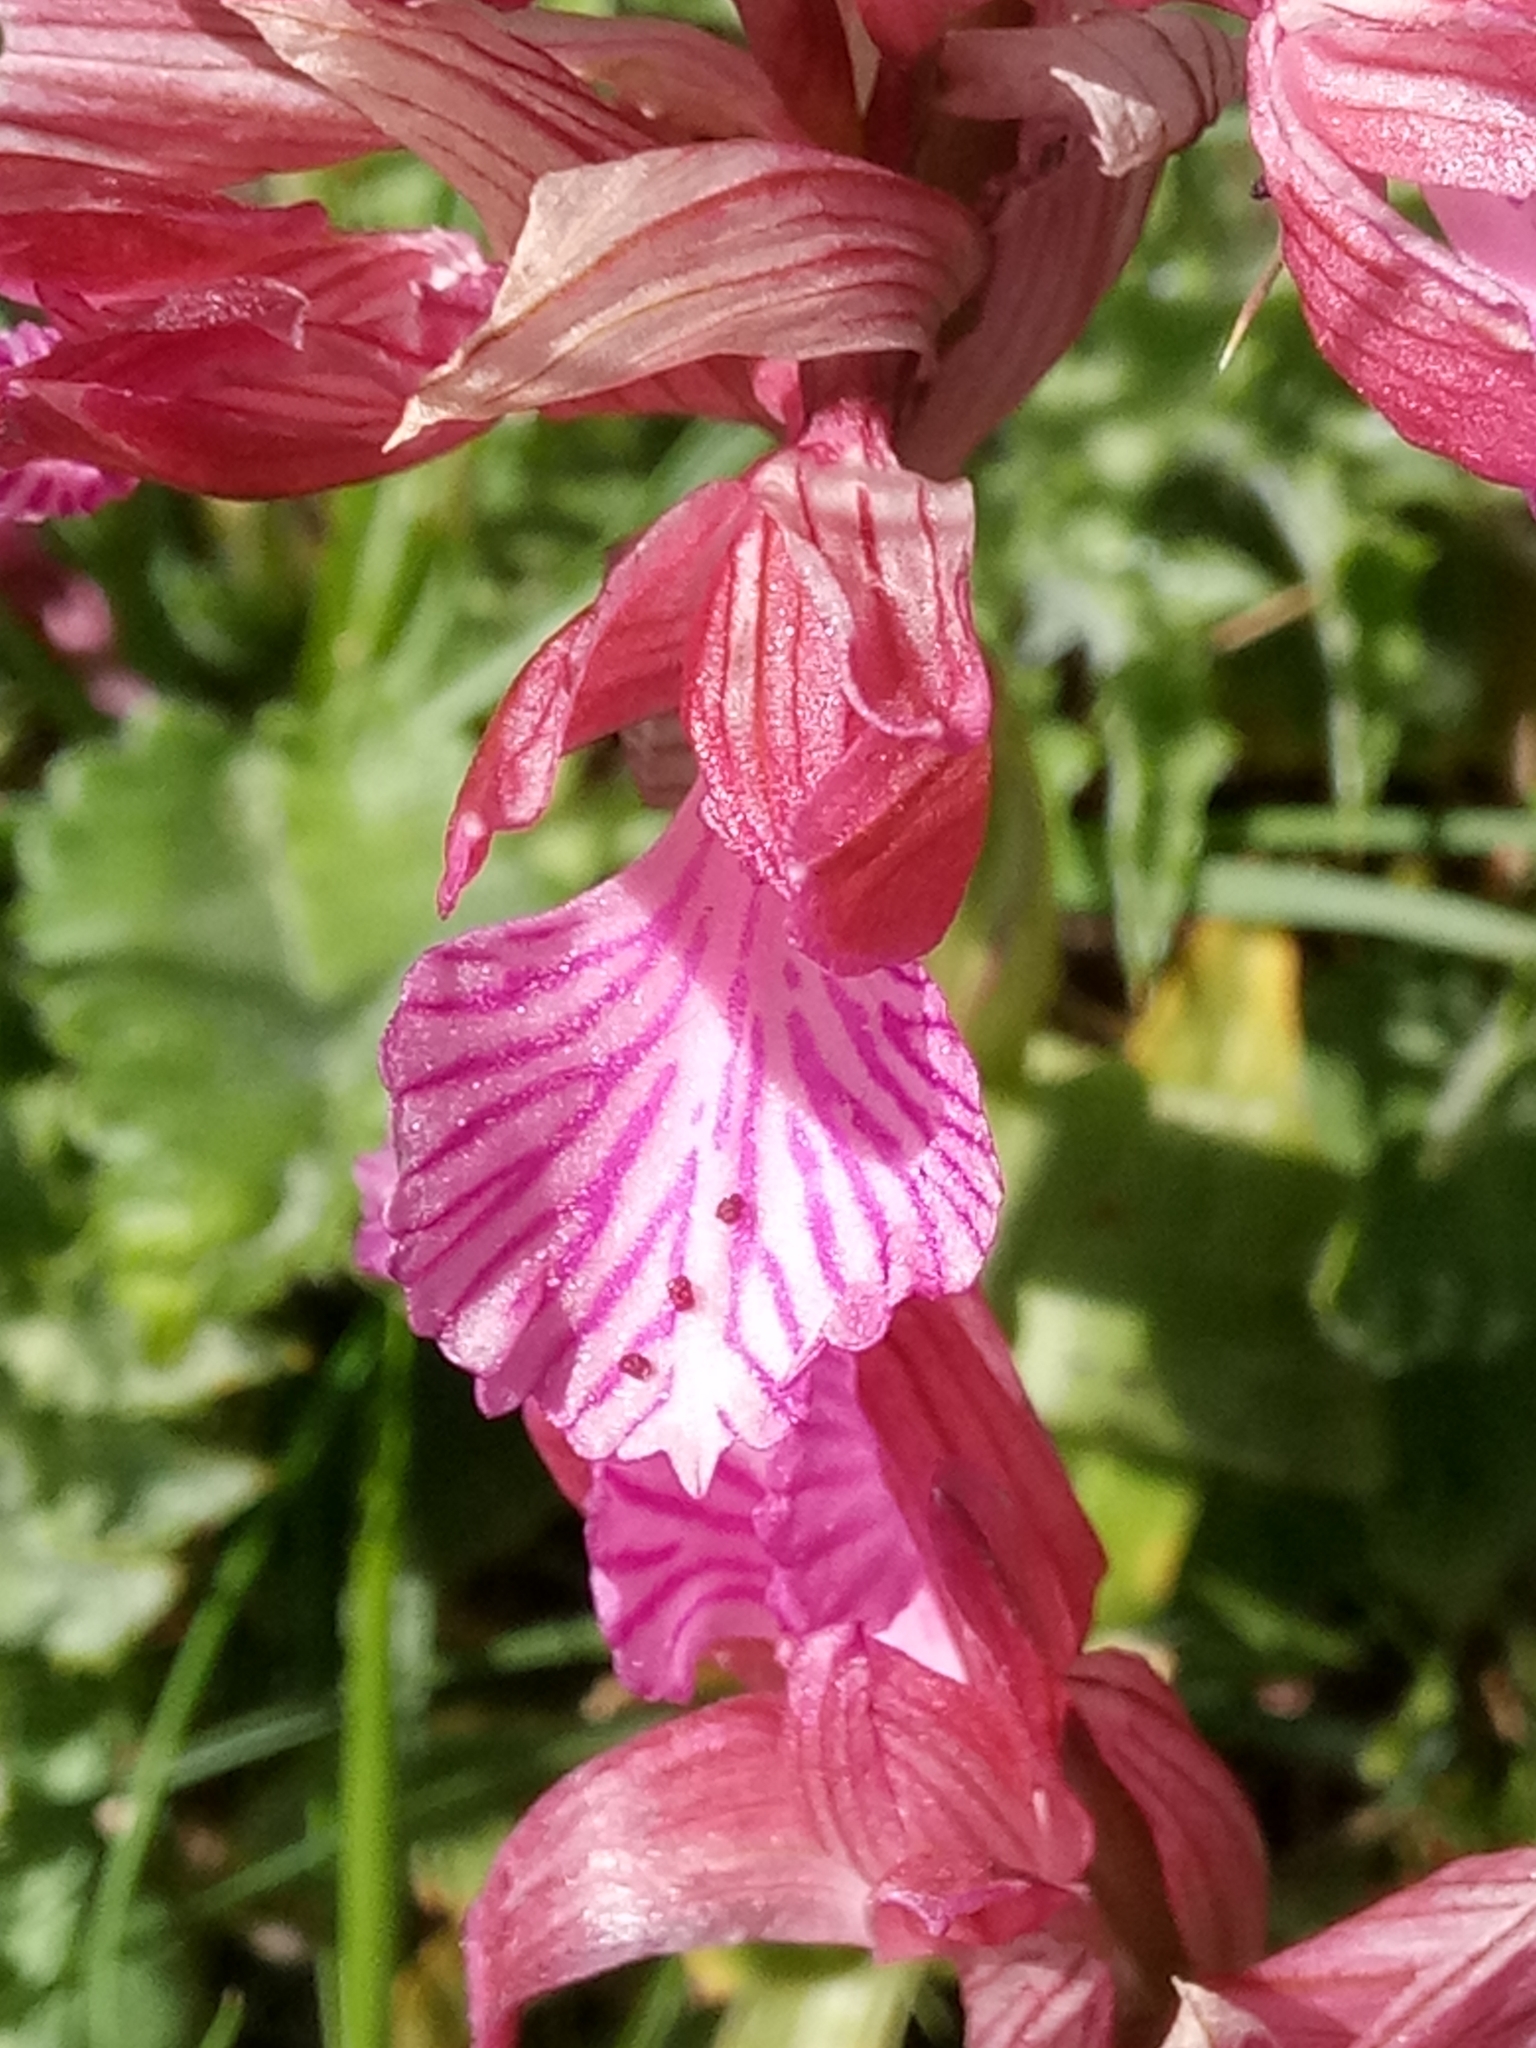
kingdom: Plantae
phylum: Tracheophyta
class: Liliopsida
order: Asparagales
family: Orchidaceae
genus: Anacamptis
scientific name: Anacamptis papilionacea
